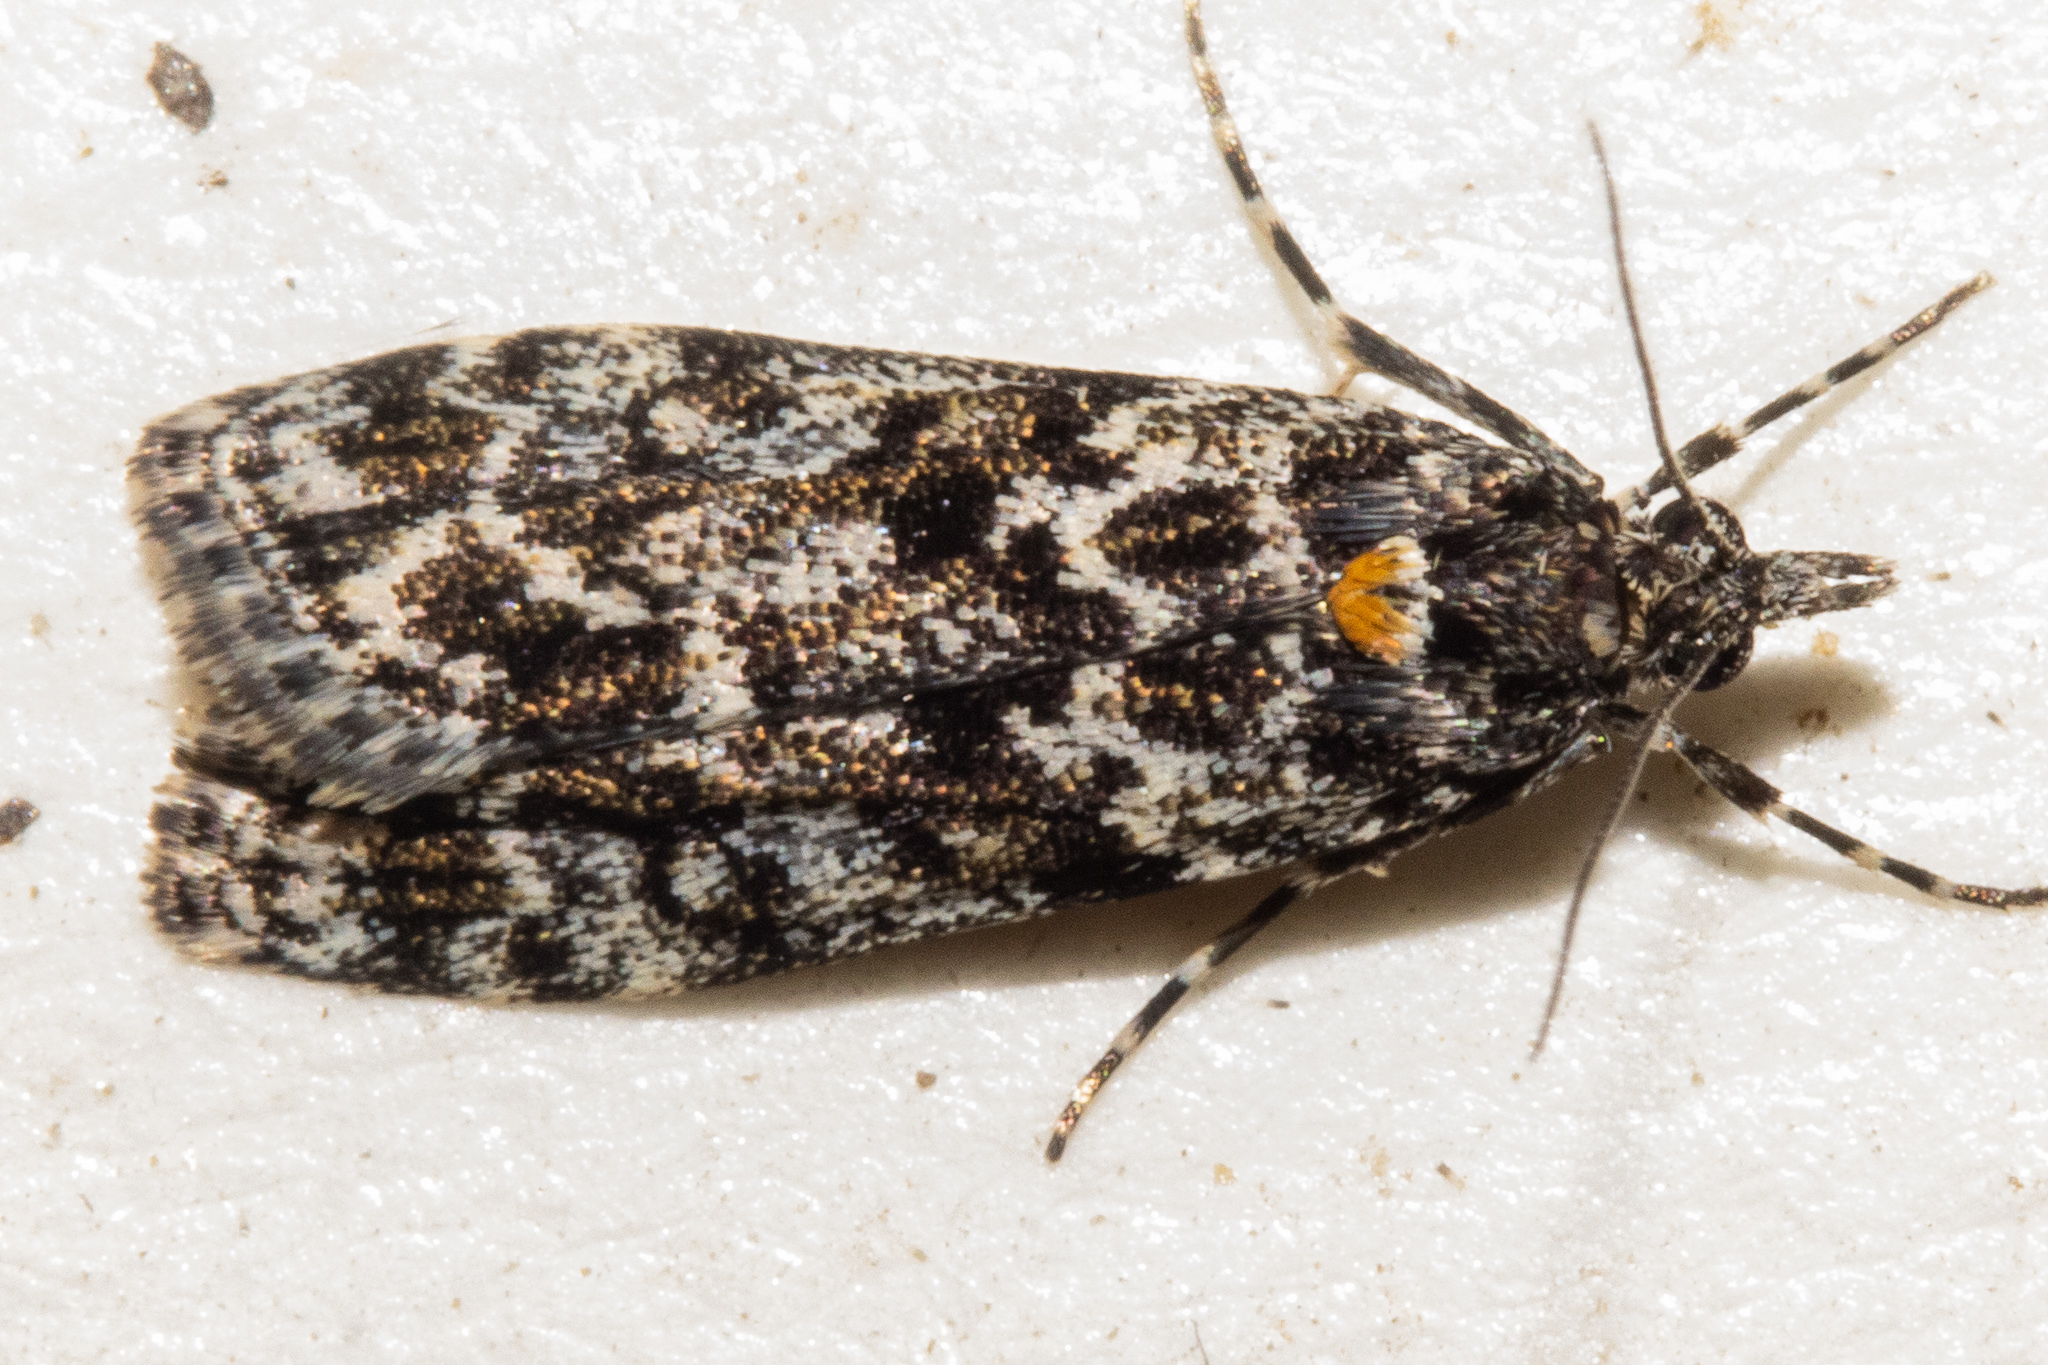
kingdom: Animalia
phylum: Arthropoda
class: Insecta
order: Lepidoptera
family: Crambidae
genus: Eudonia
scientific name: Eudonia
